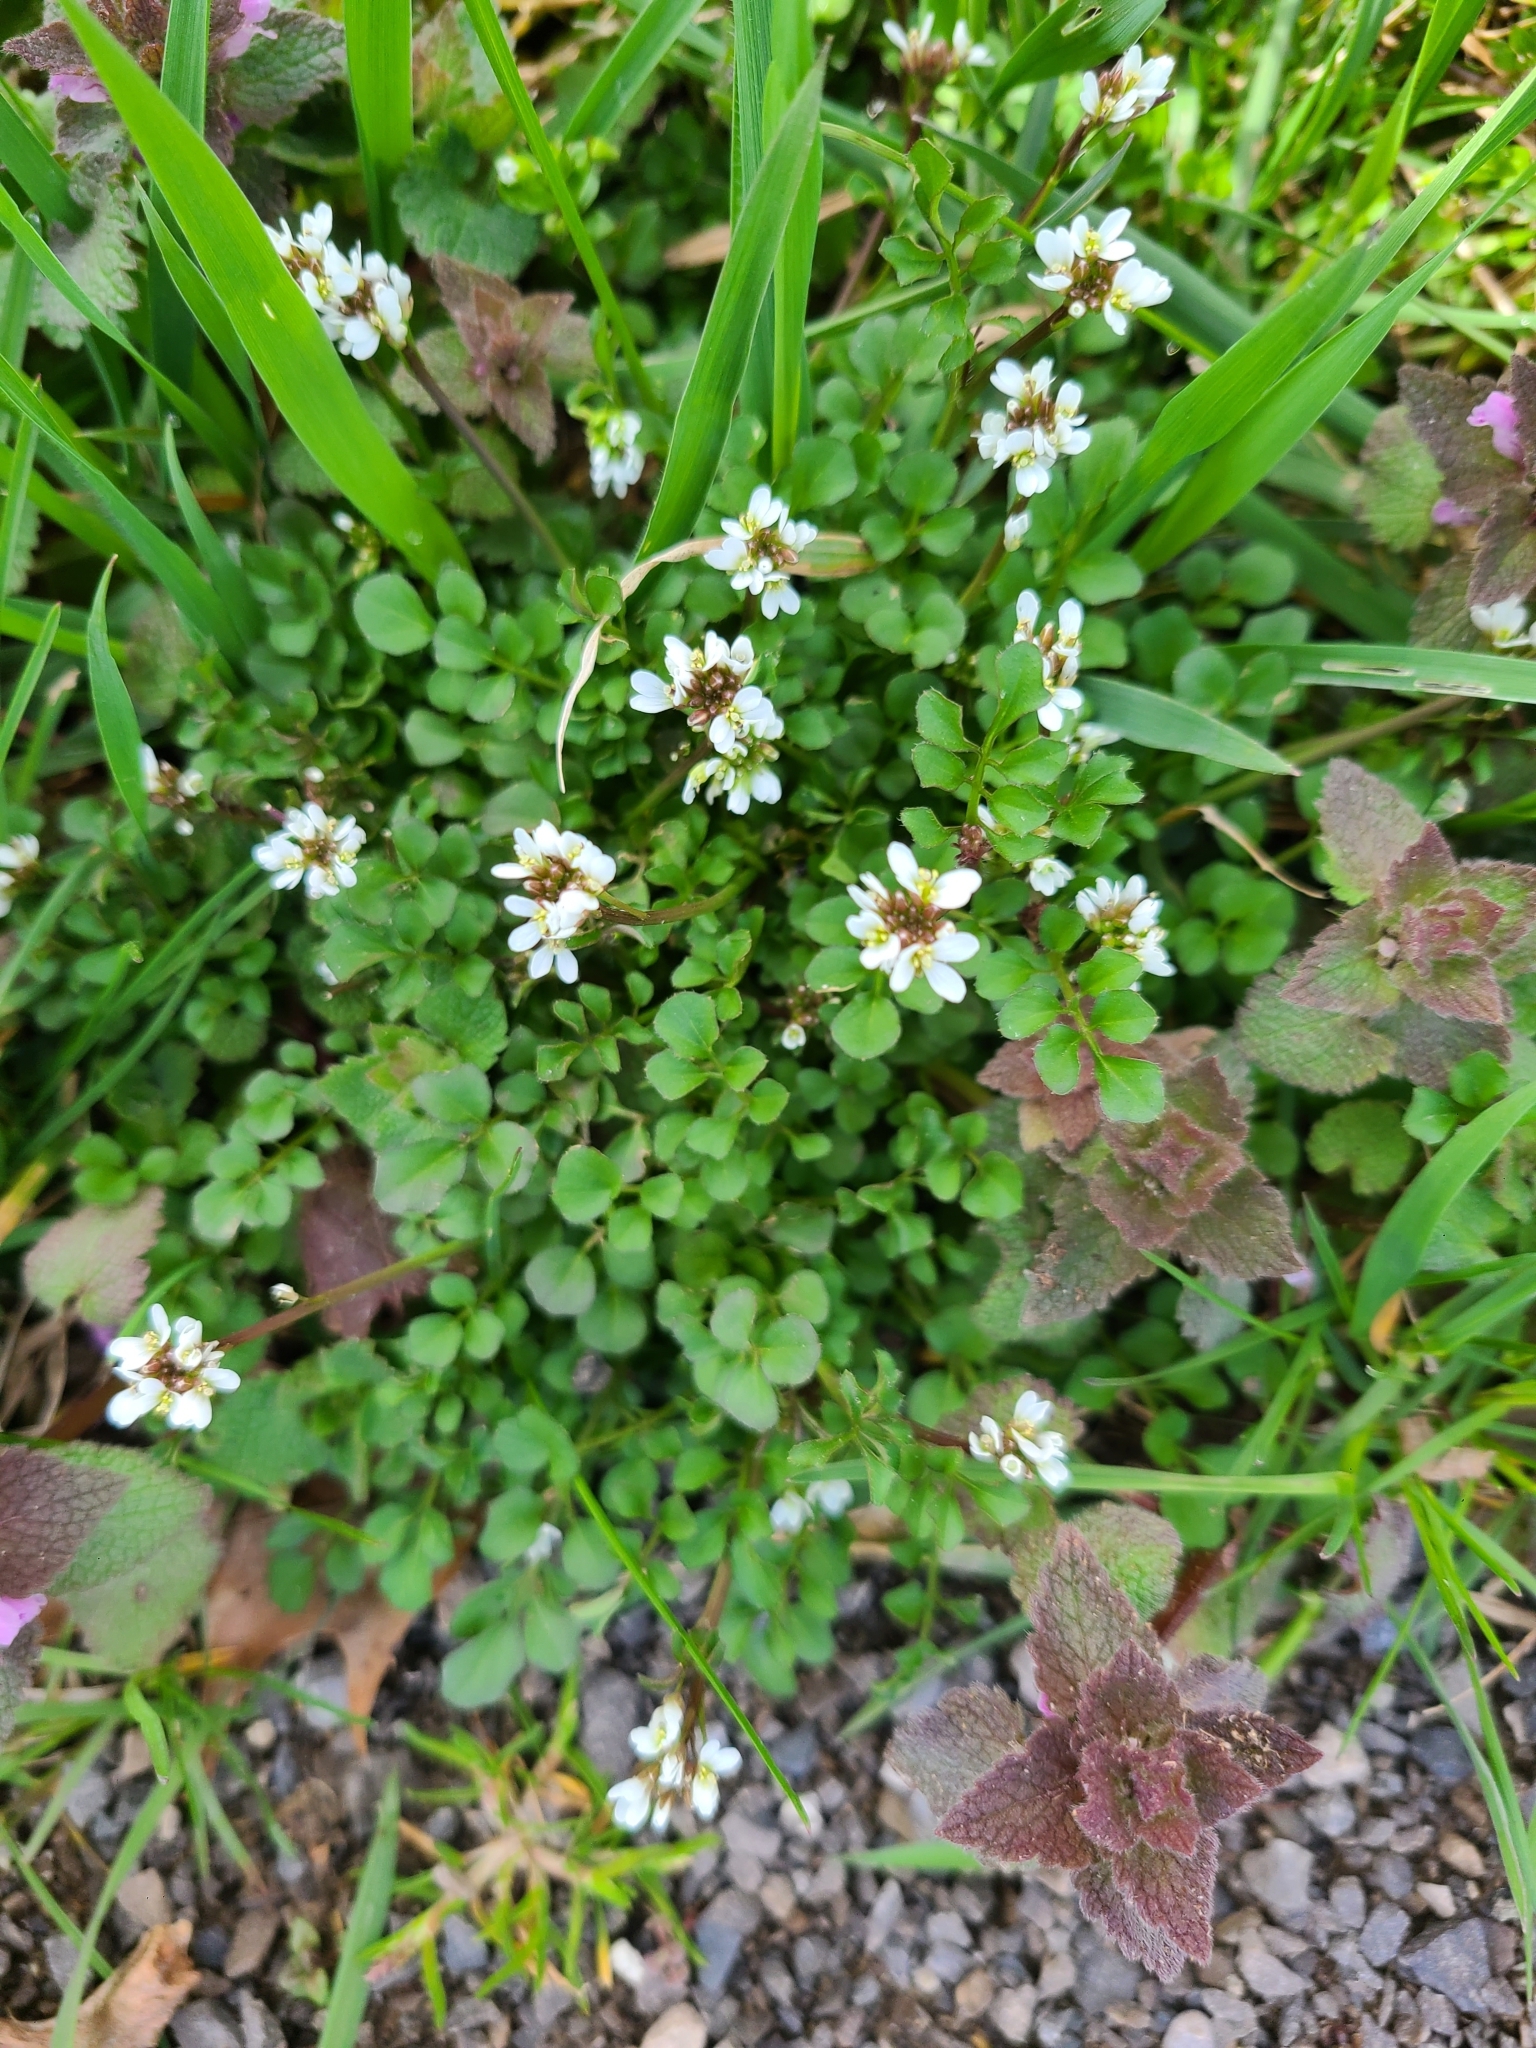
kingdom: Plantae
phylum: Tracheophyta
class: Magnoliopsida
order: Brassicales
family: Brassicaceae
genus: Cardamine
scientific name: Cardamine hirsuta
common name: Hairy bittercress
